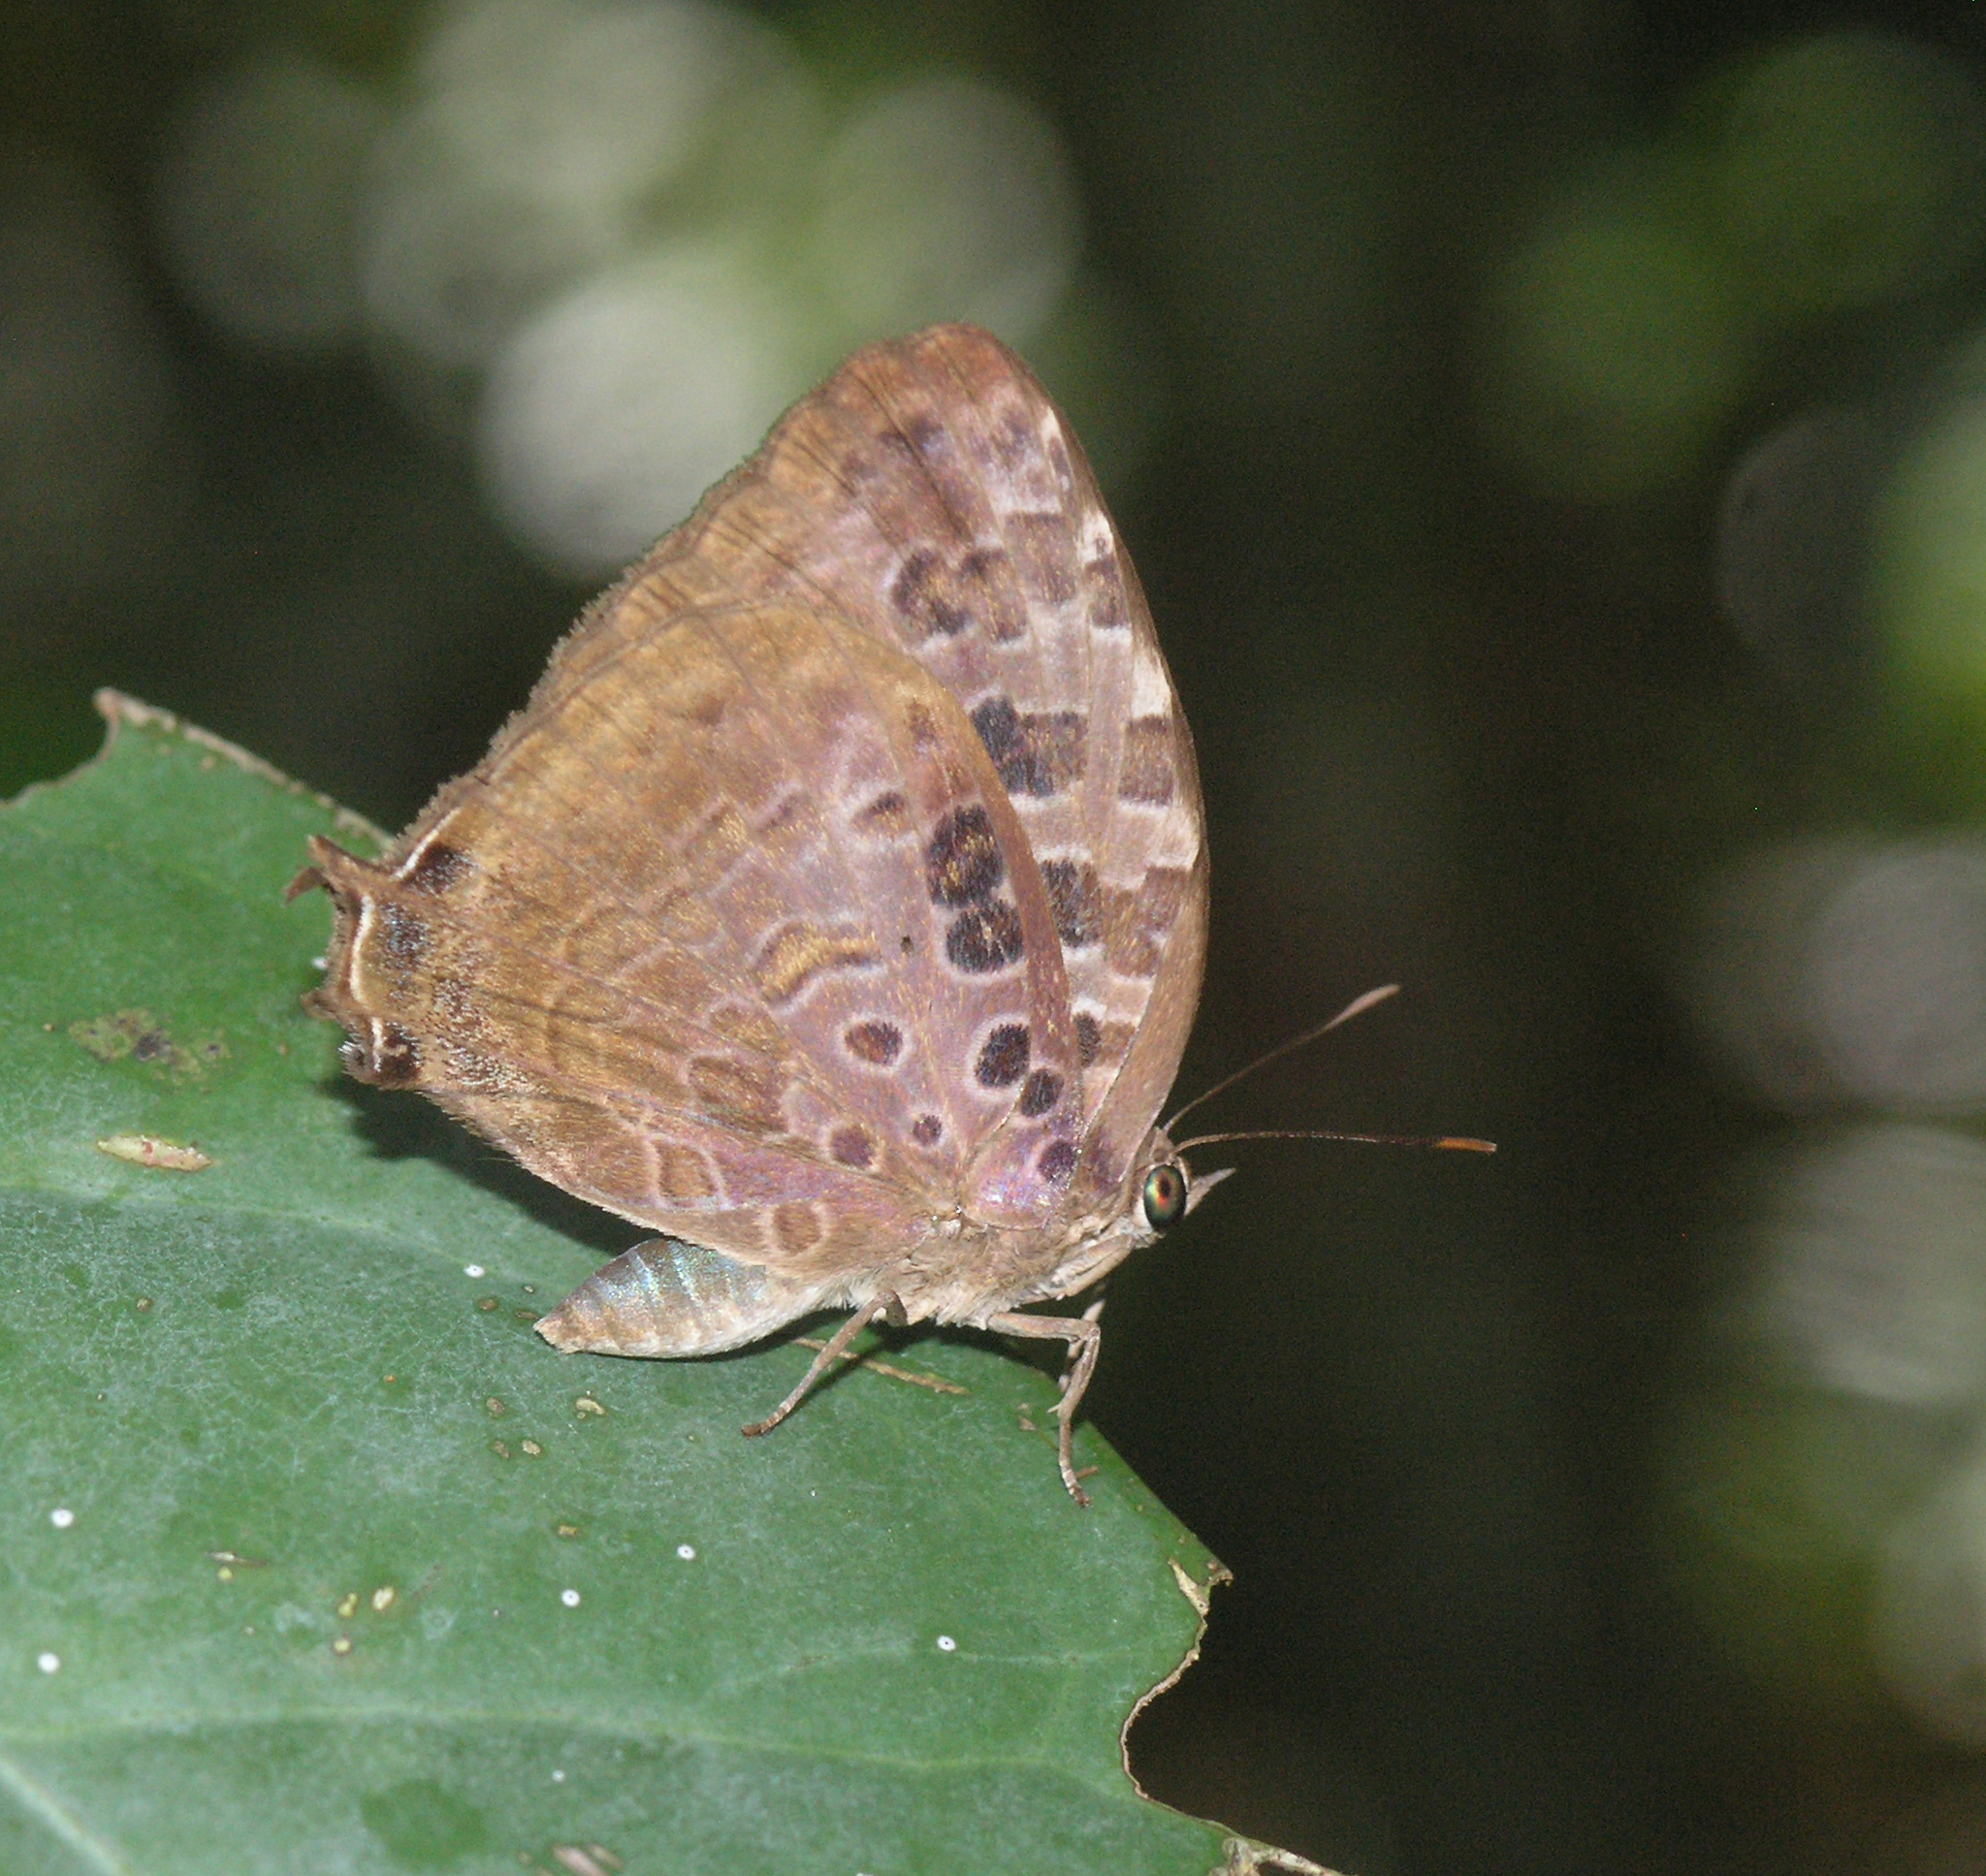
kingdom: Animalia
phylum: Arthropoda
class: Insecta
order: Lepidoptera
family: Lycaenidae
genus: Arhopala
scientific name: Arhopala anthelus
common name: Bushblue
